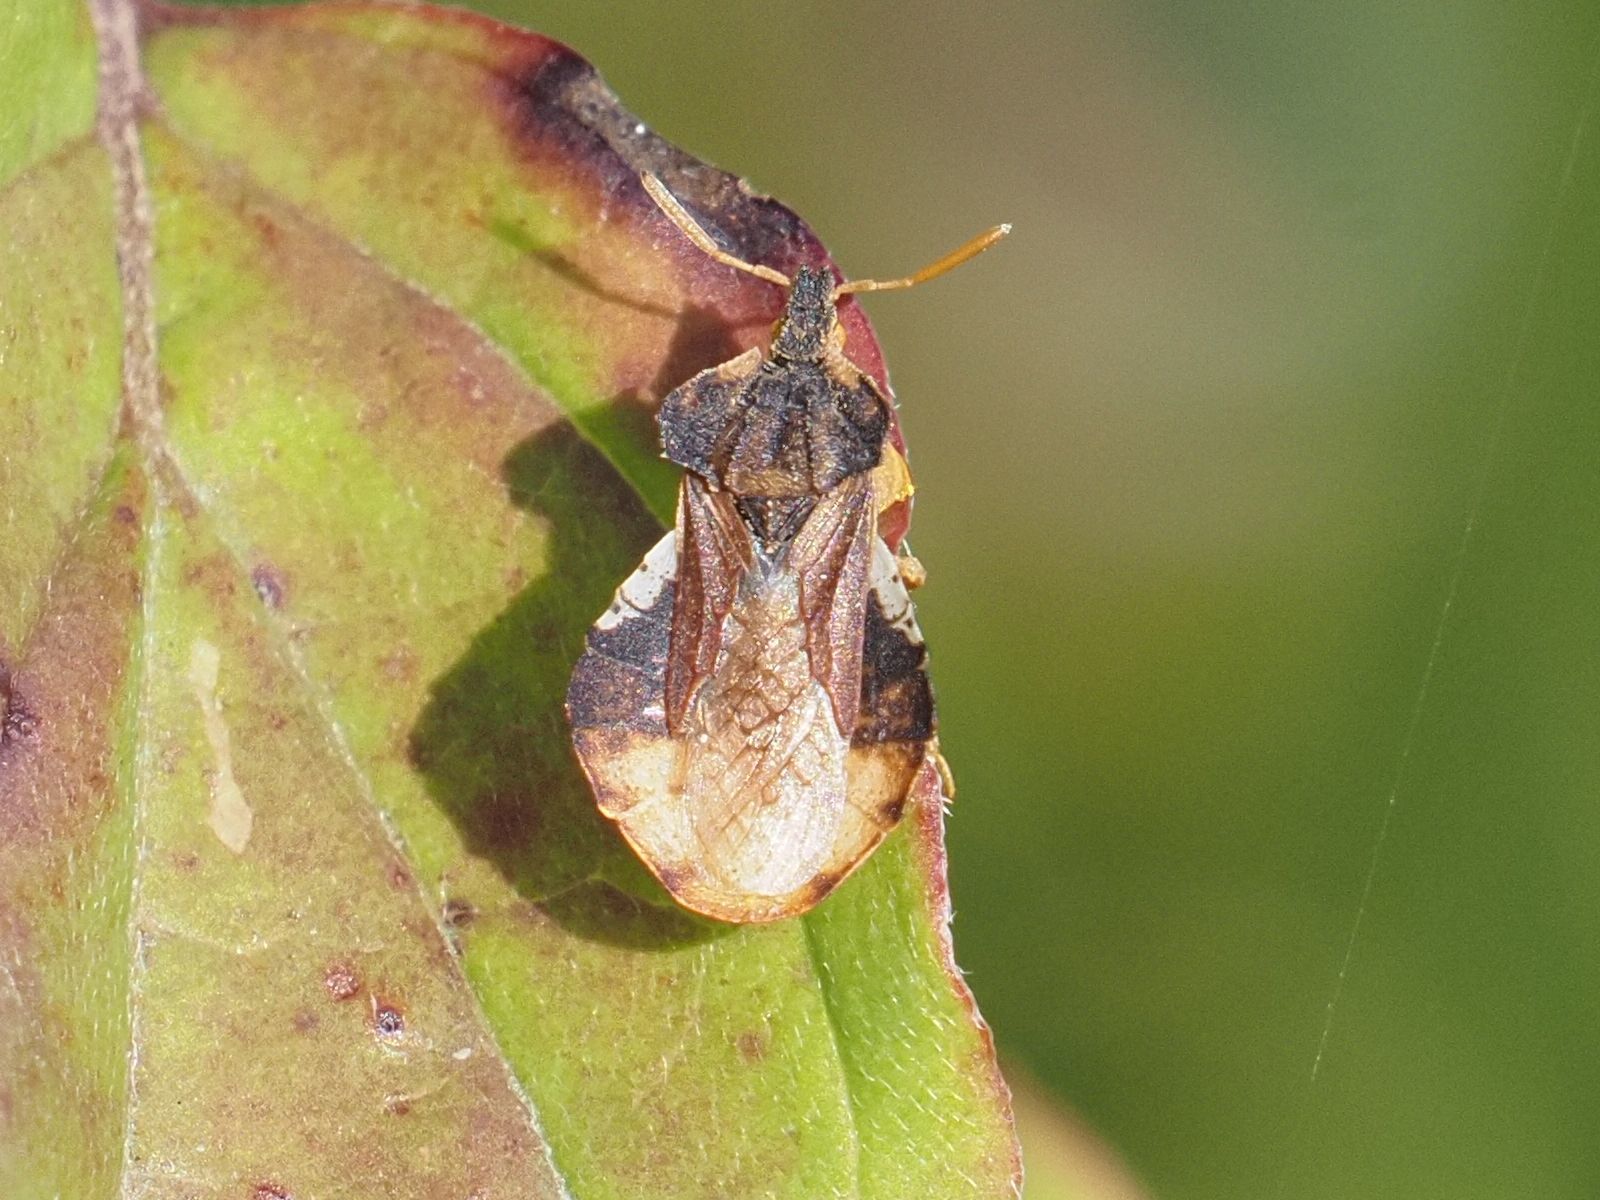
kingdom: Animalia
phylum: Arthropoda
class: Insecta
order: Hemiptera
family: Reduviidae
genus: Phymata
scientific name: Phymata crassipes
